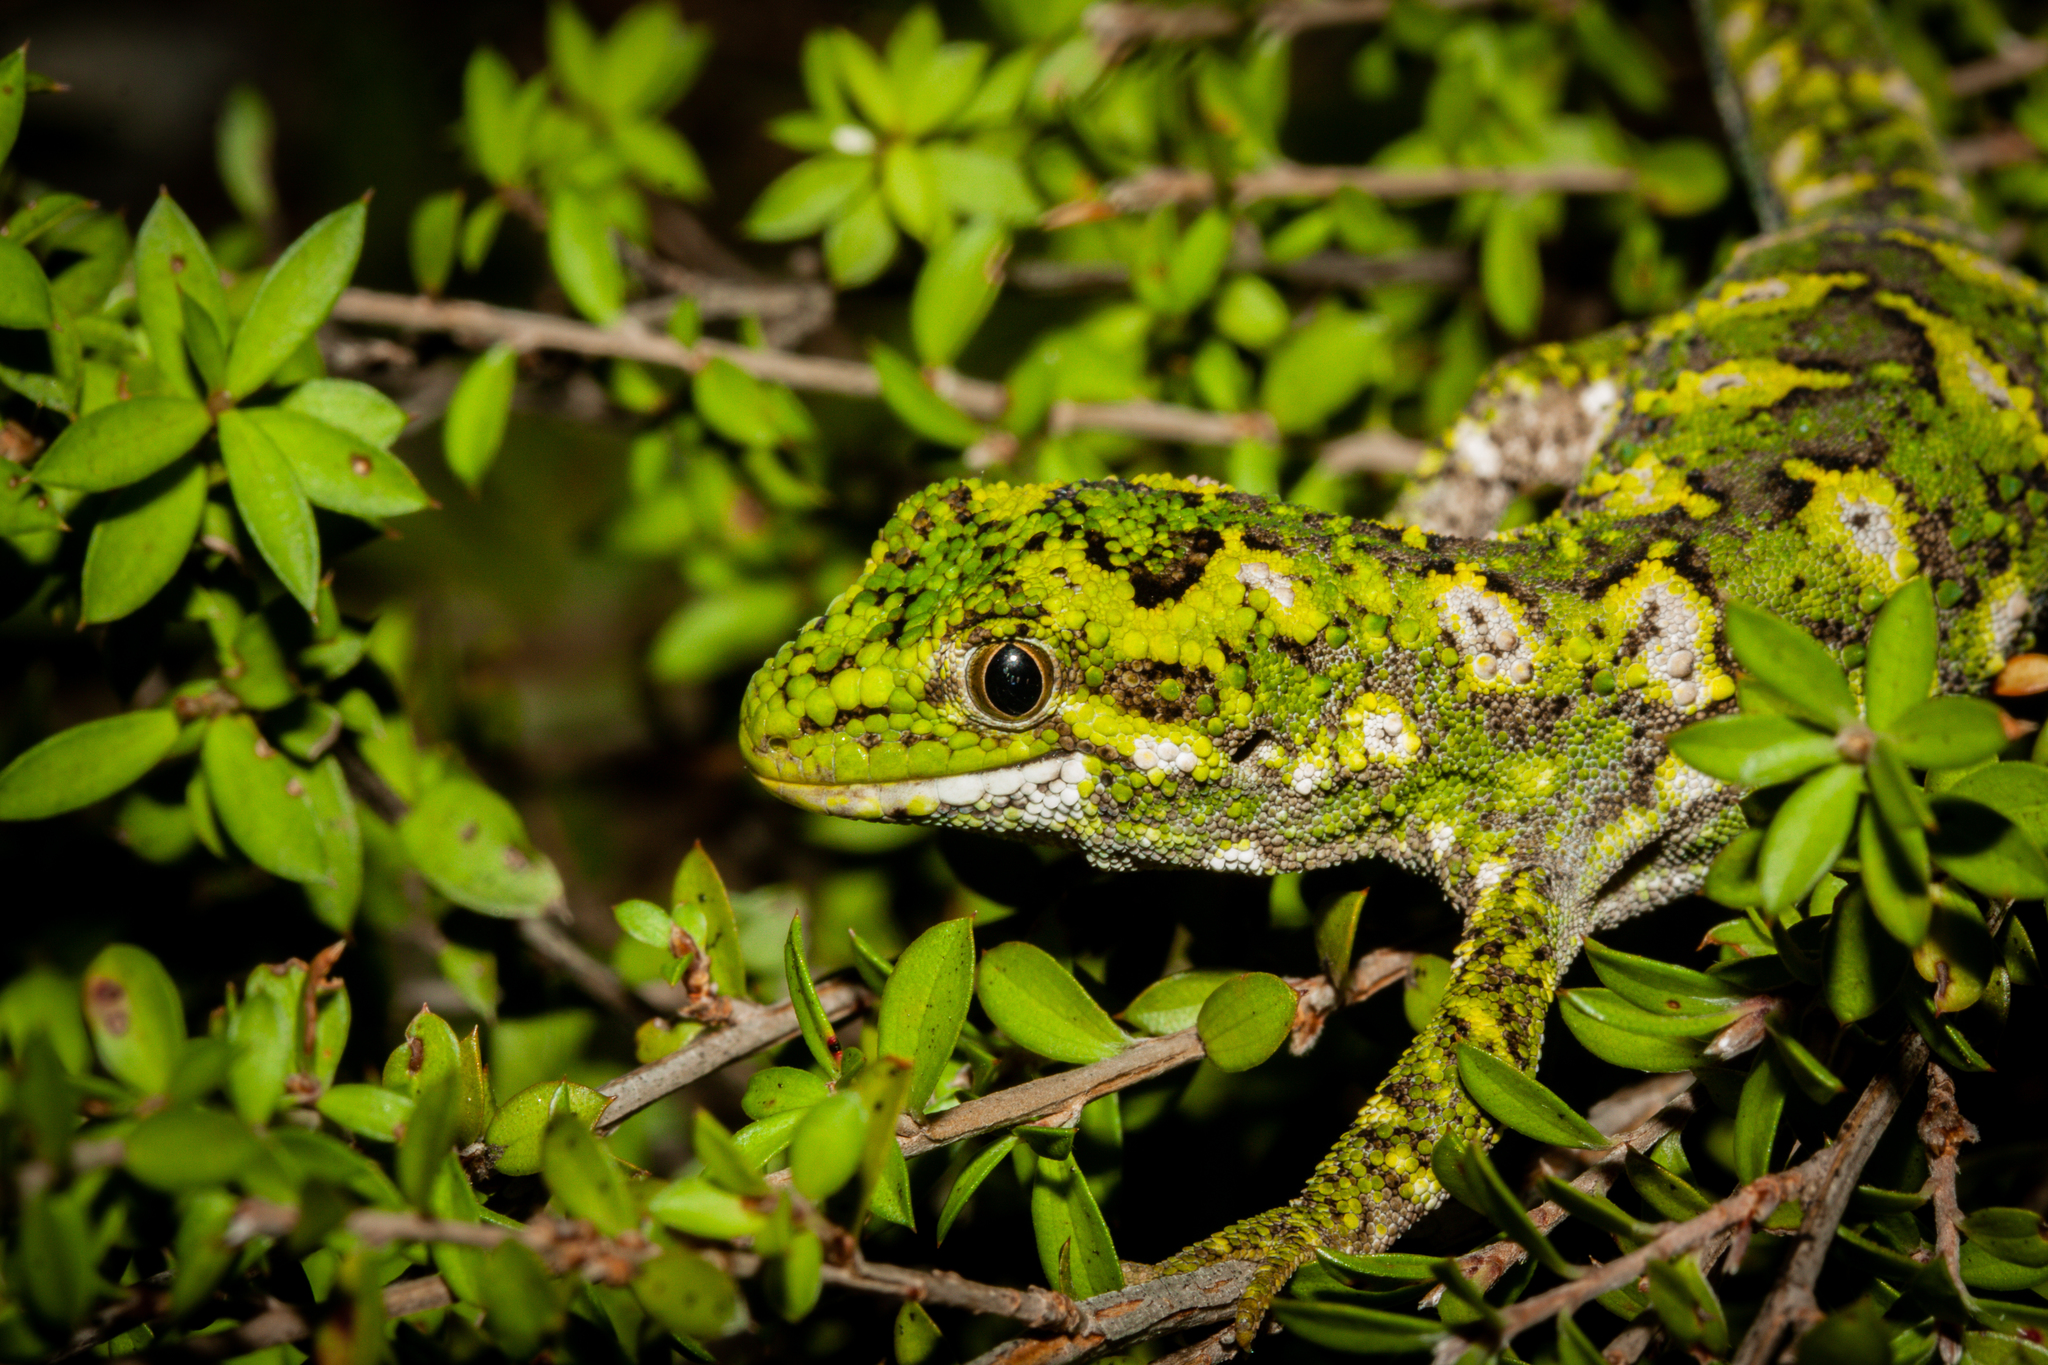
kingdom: Animalia
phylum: Chordata
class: Squamata
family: Diplodactylidae
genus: Naultinus
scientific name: Naultinus rudis
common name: Natural tree gecko
